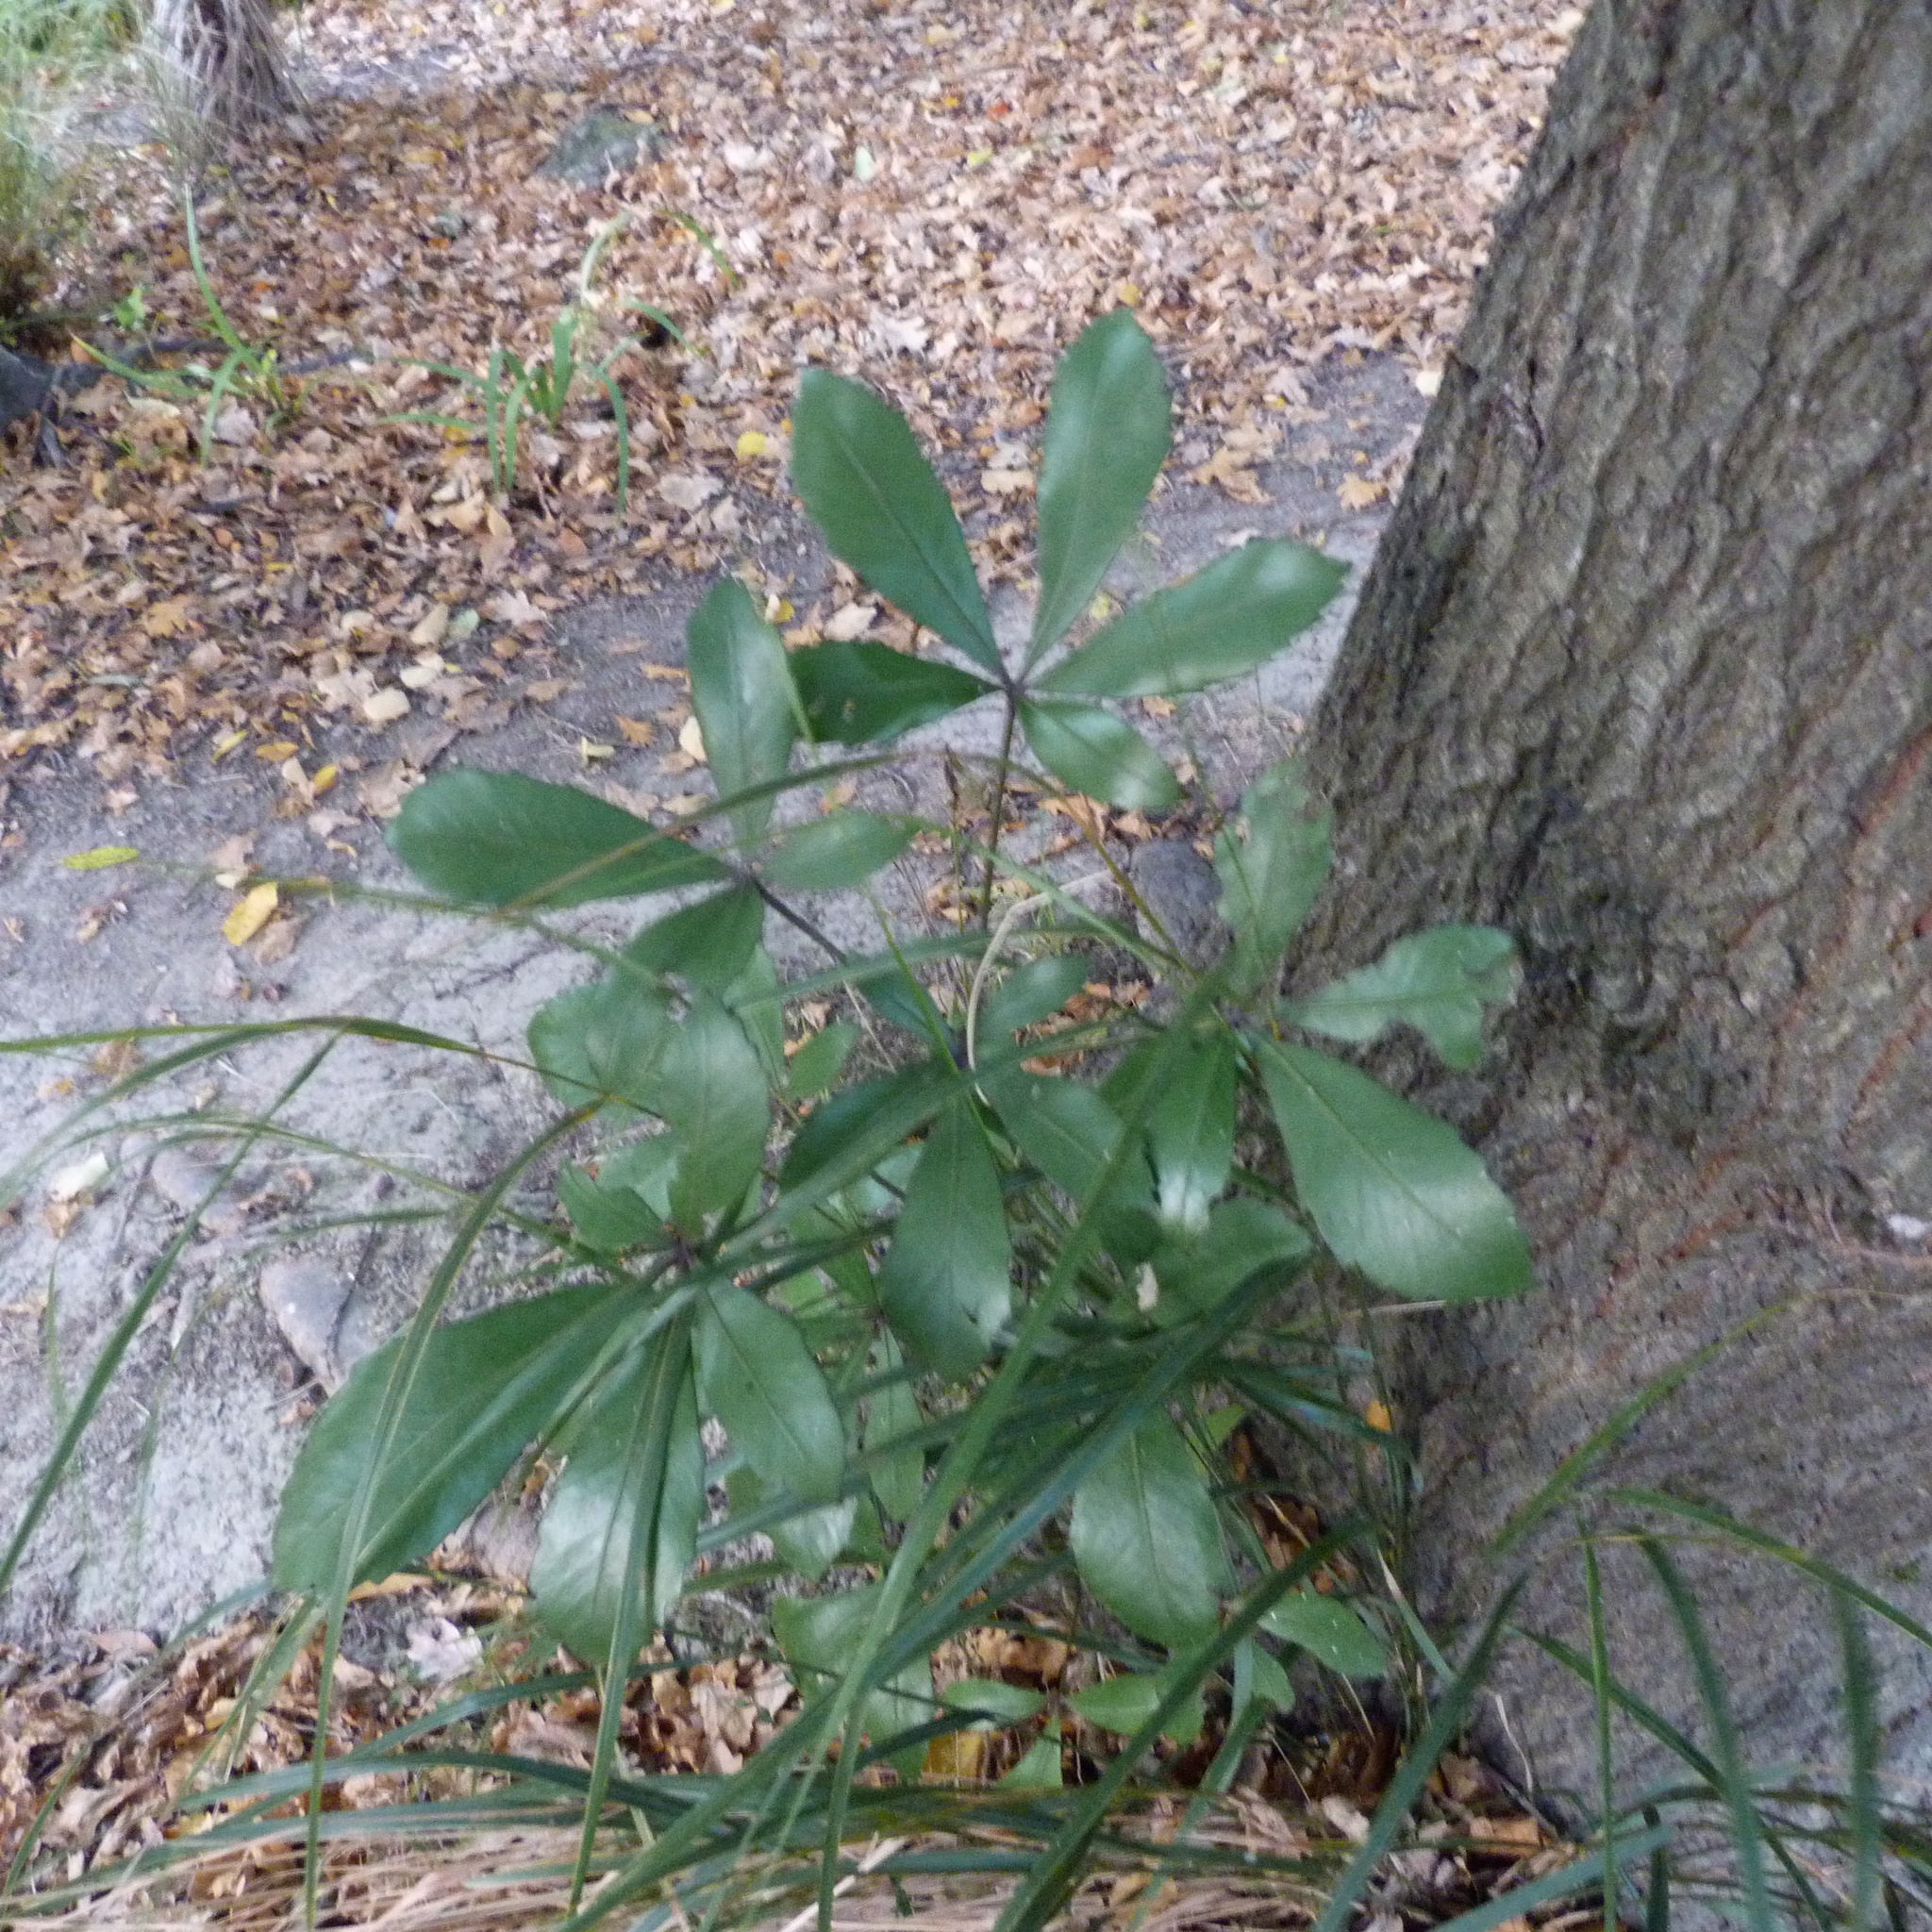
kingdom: Plantae
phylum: Tracheophyta
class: Magnoliopsida
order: Apiales
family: Araliaceae
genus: Pseudopanax
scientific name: Pseudopanax lessonii
